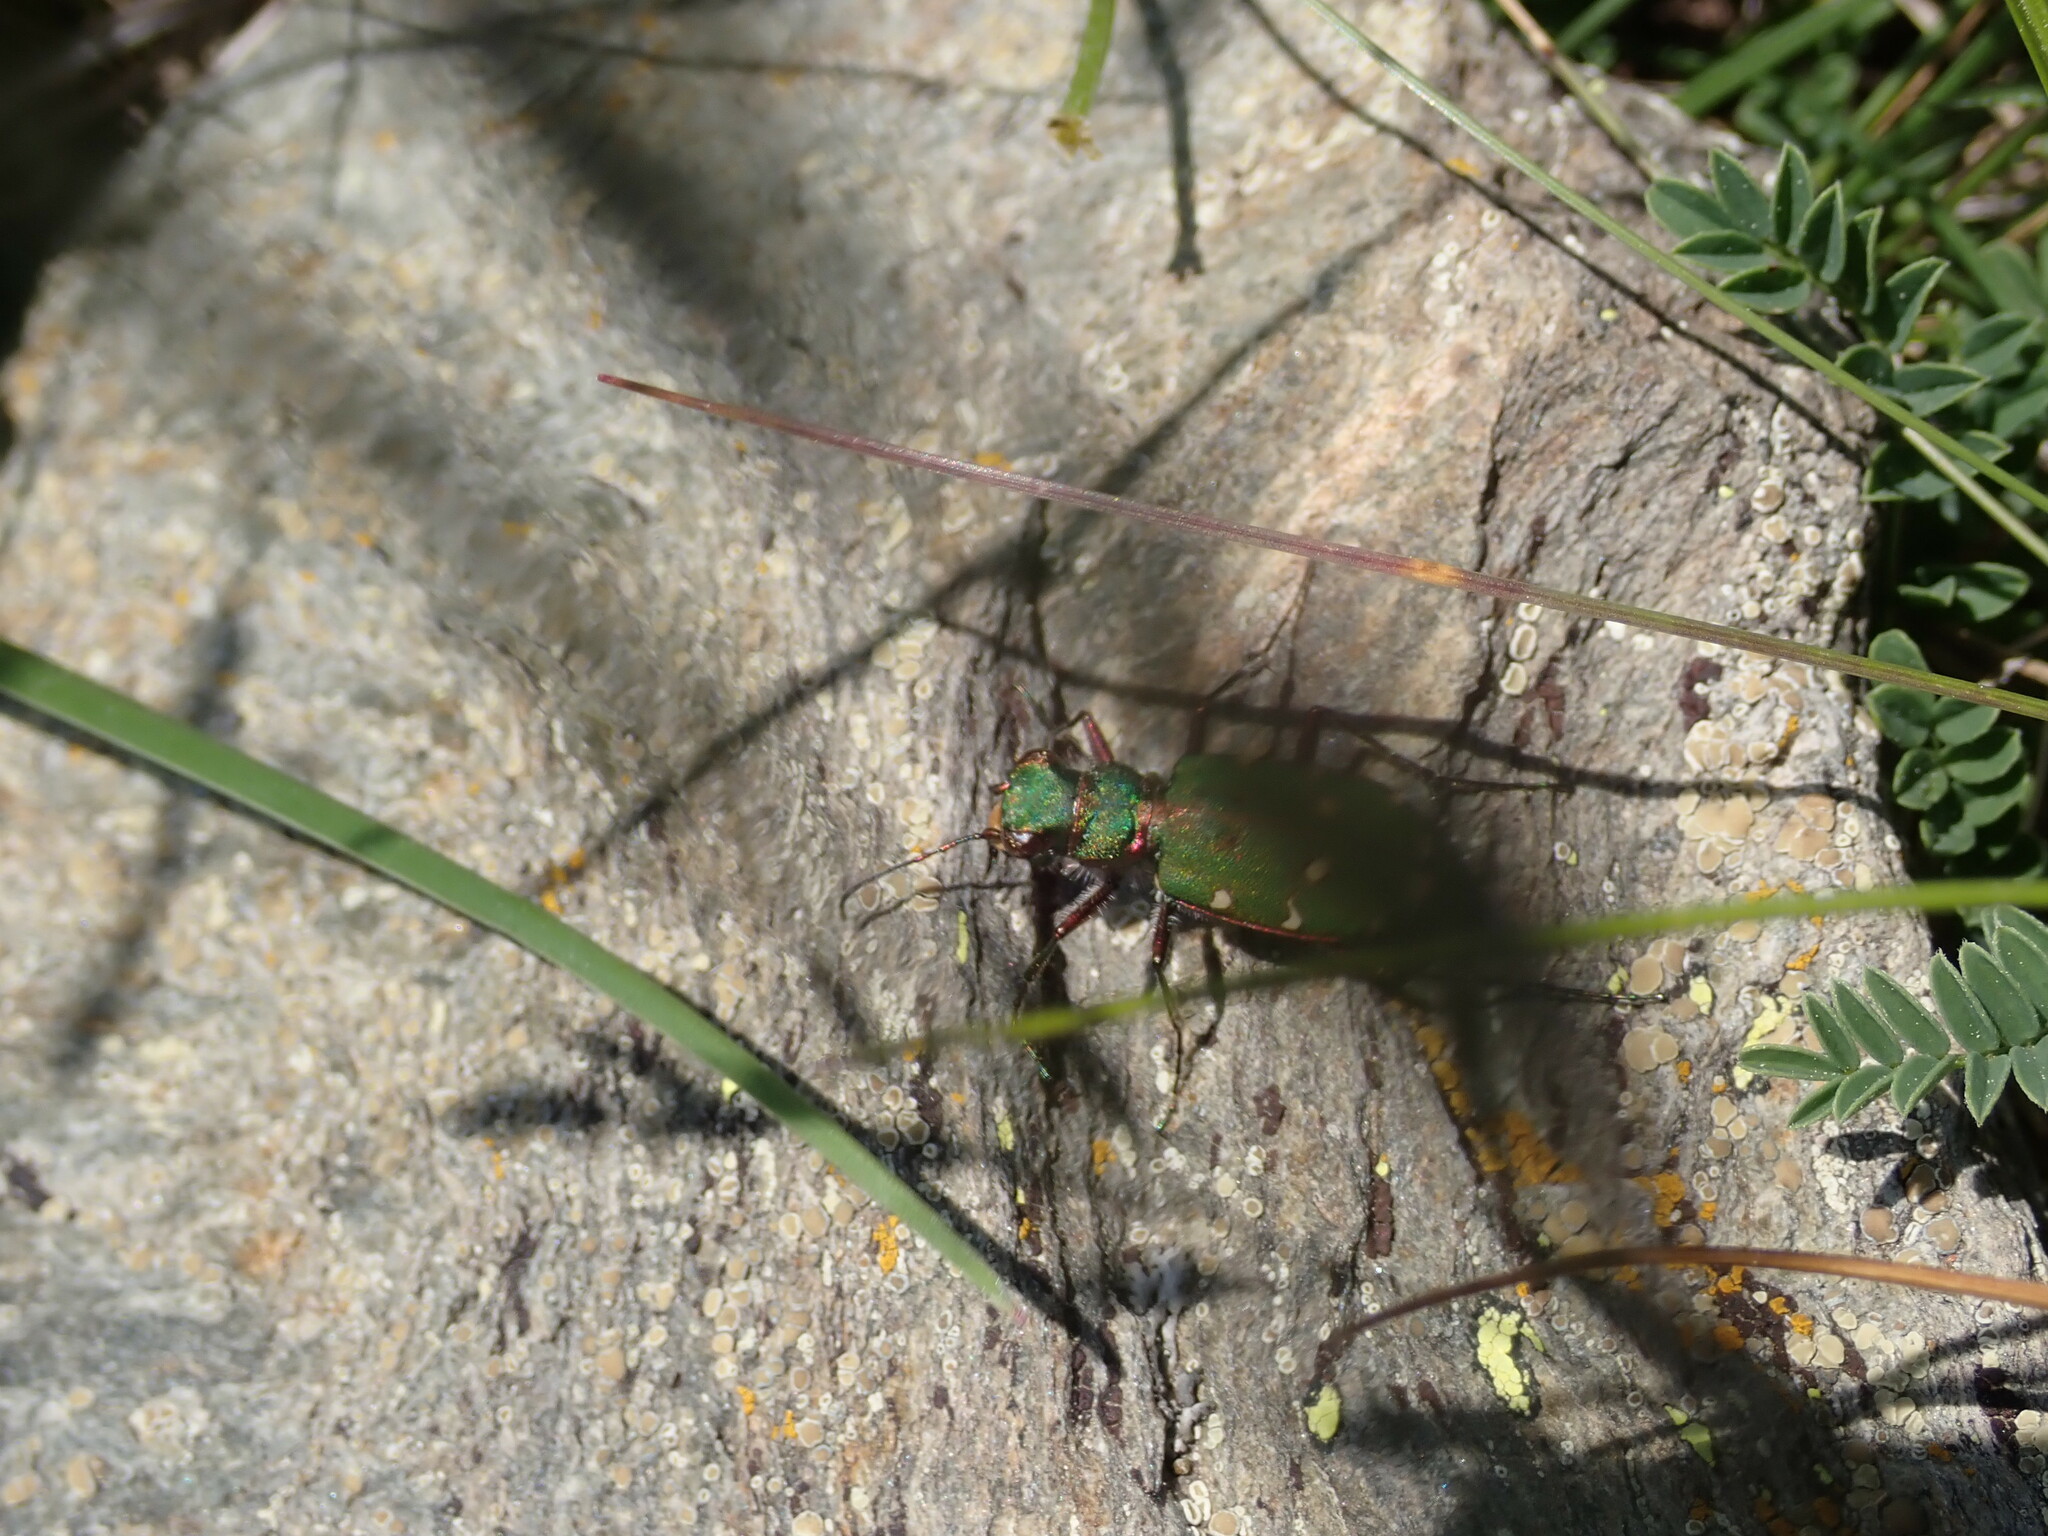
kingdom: Animalia
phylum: Arthropoda
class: Insecta
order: Coleoptera
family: Carabidae
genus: Cicindela
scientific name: Cicindela campestris
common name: Common tiger beetle
